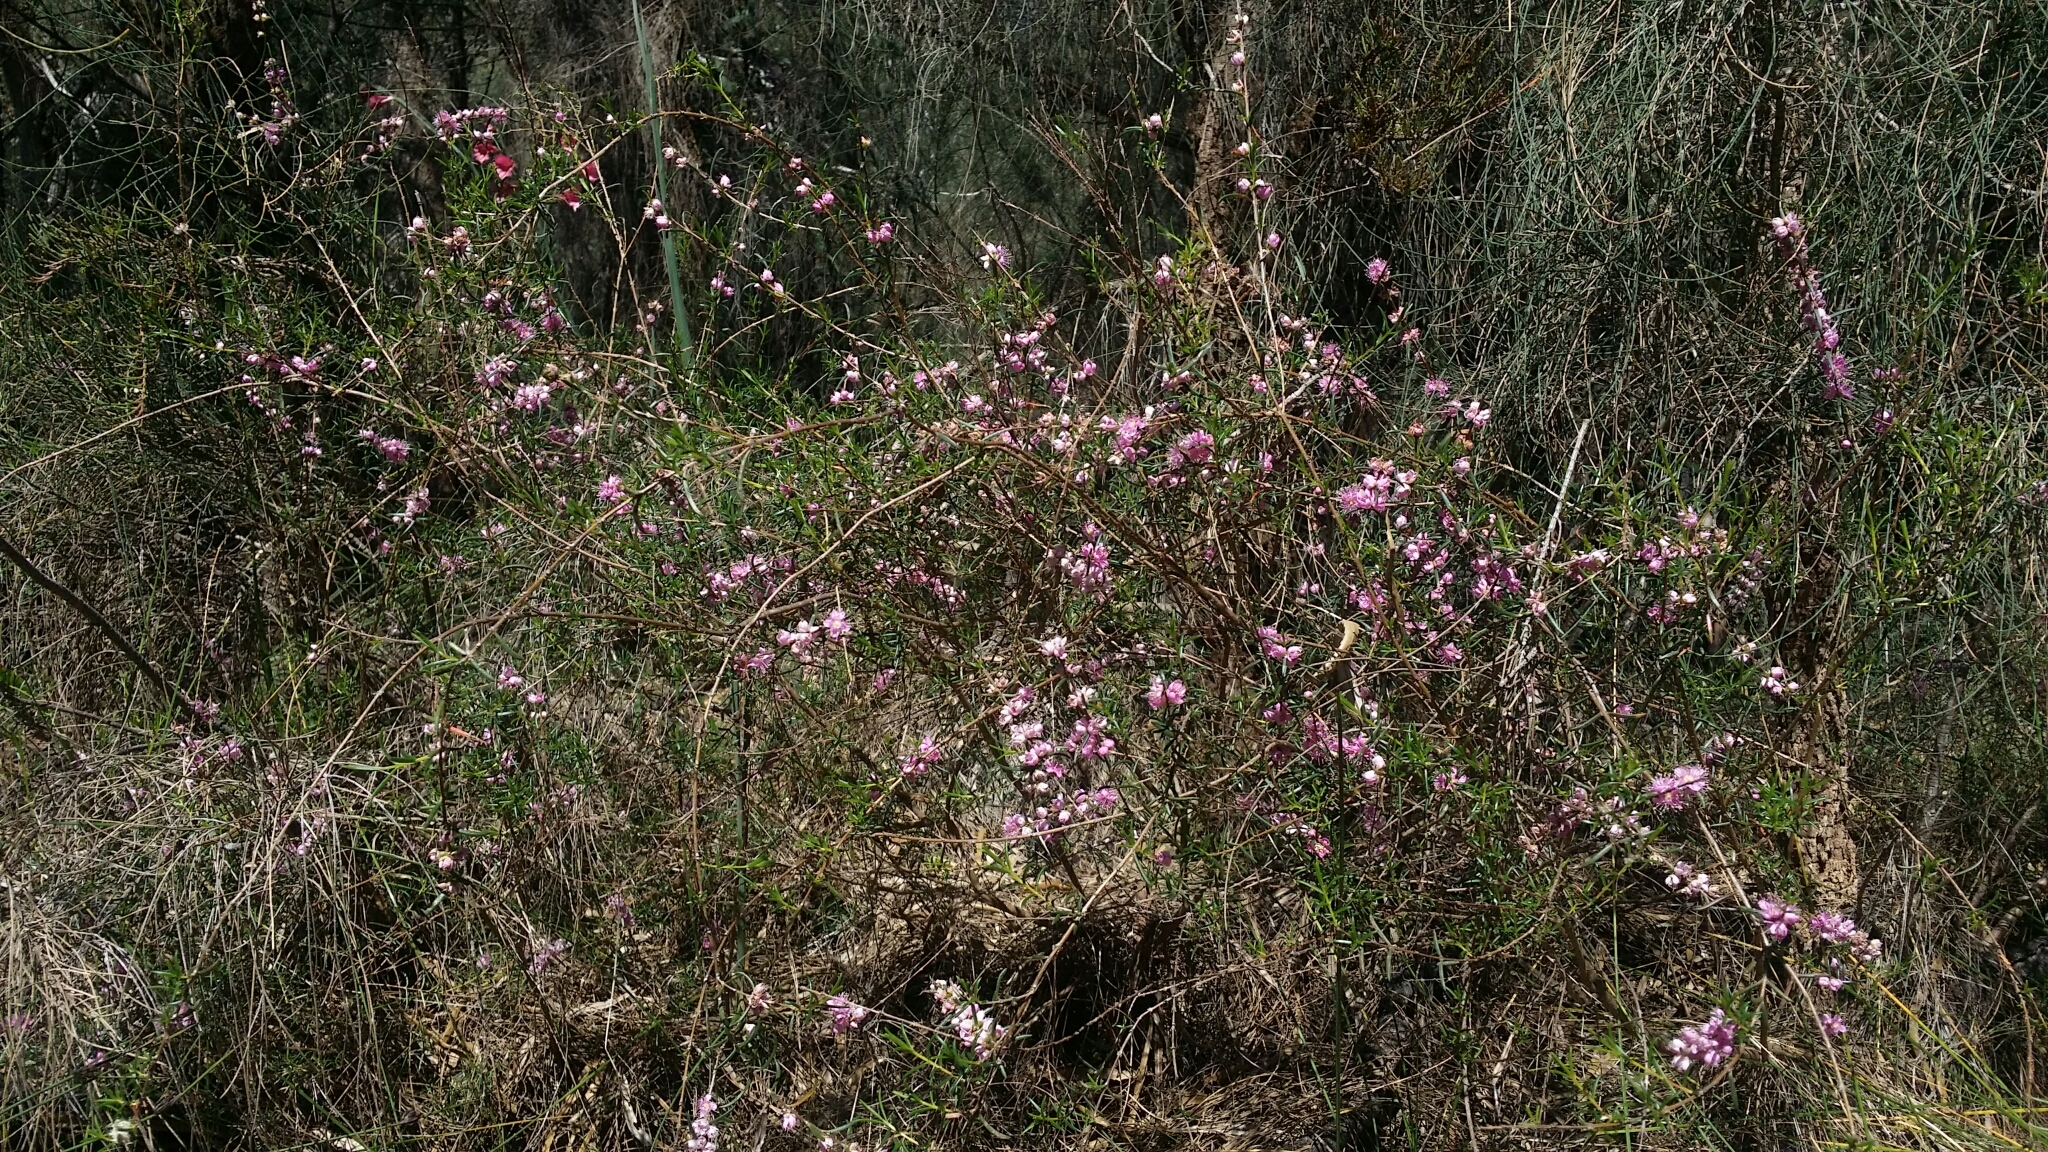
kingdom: Plantae
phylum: Tracheophyta
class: Magnoliopsida
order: Myrtales
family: Myrtaceae
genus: Hypocalymma
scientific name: Hypocalymma robustum
